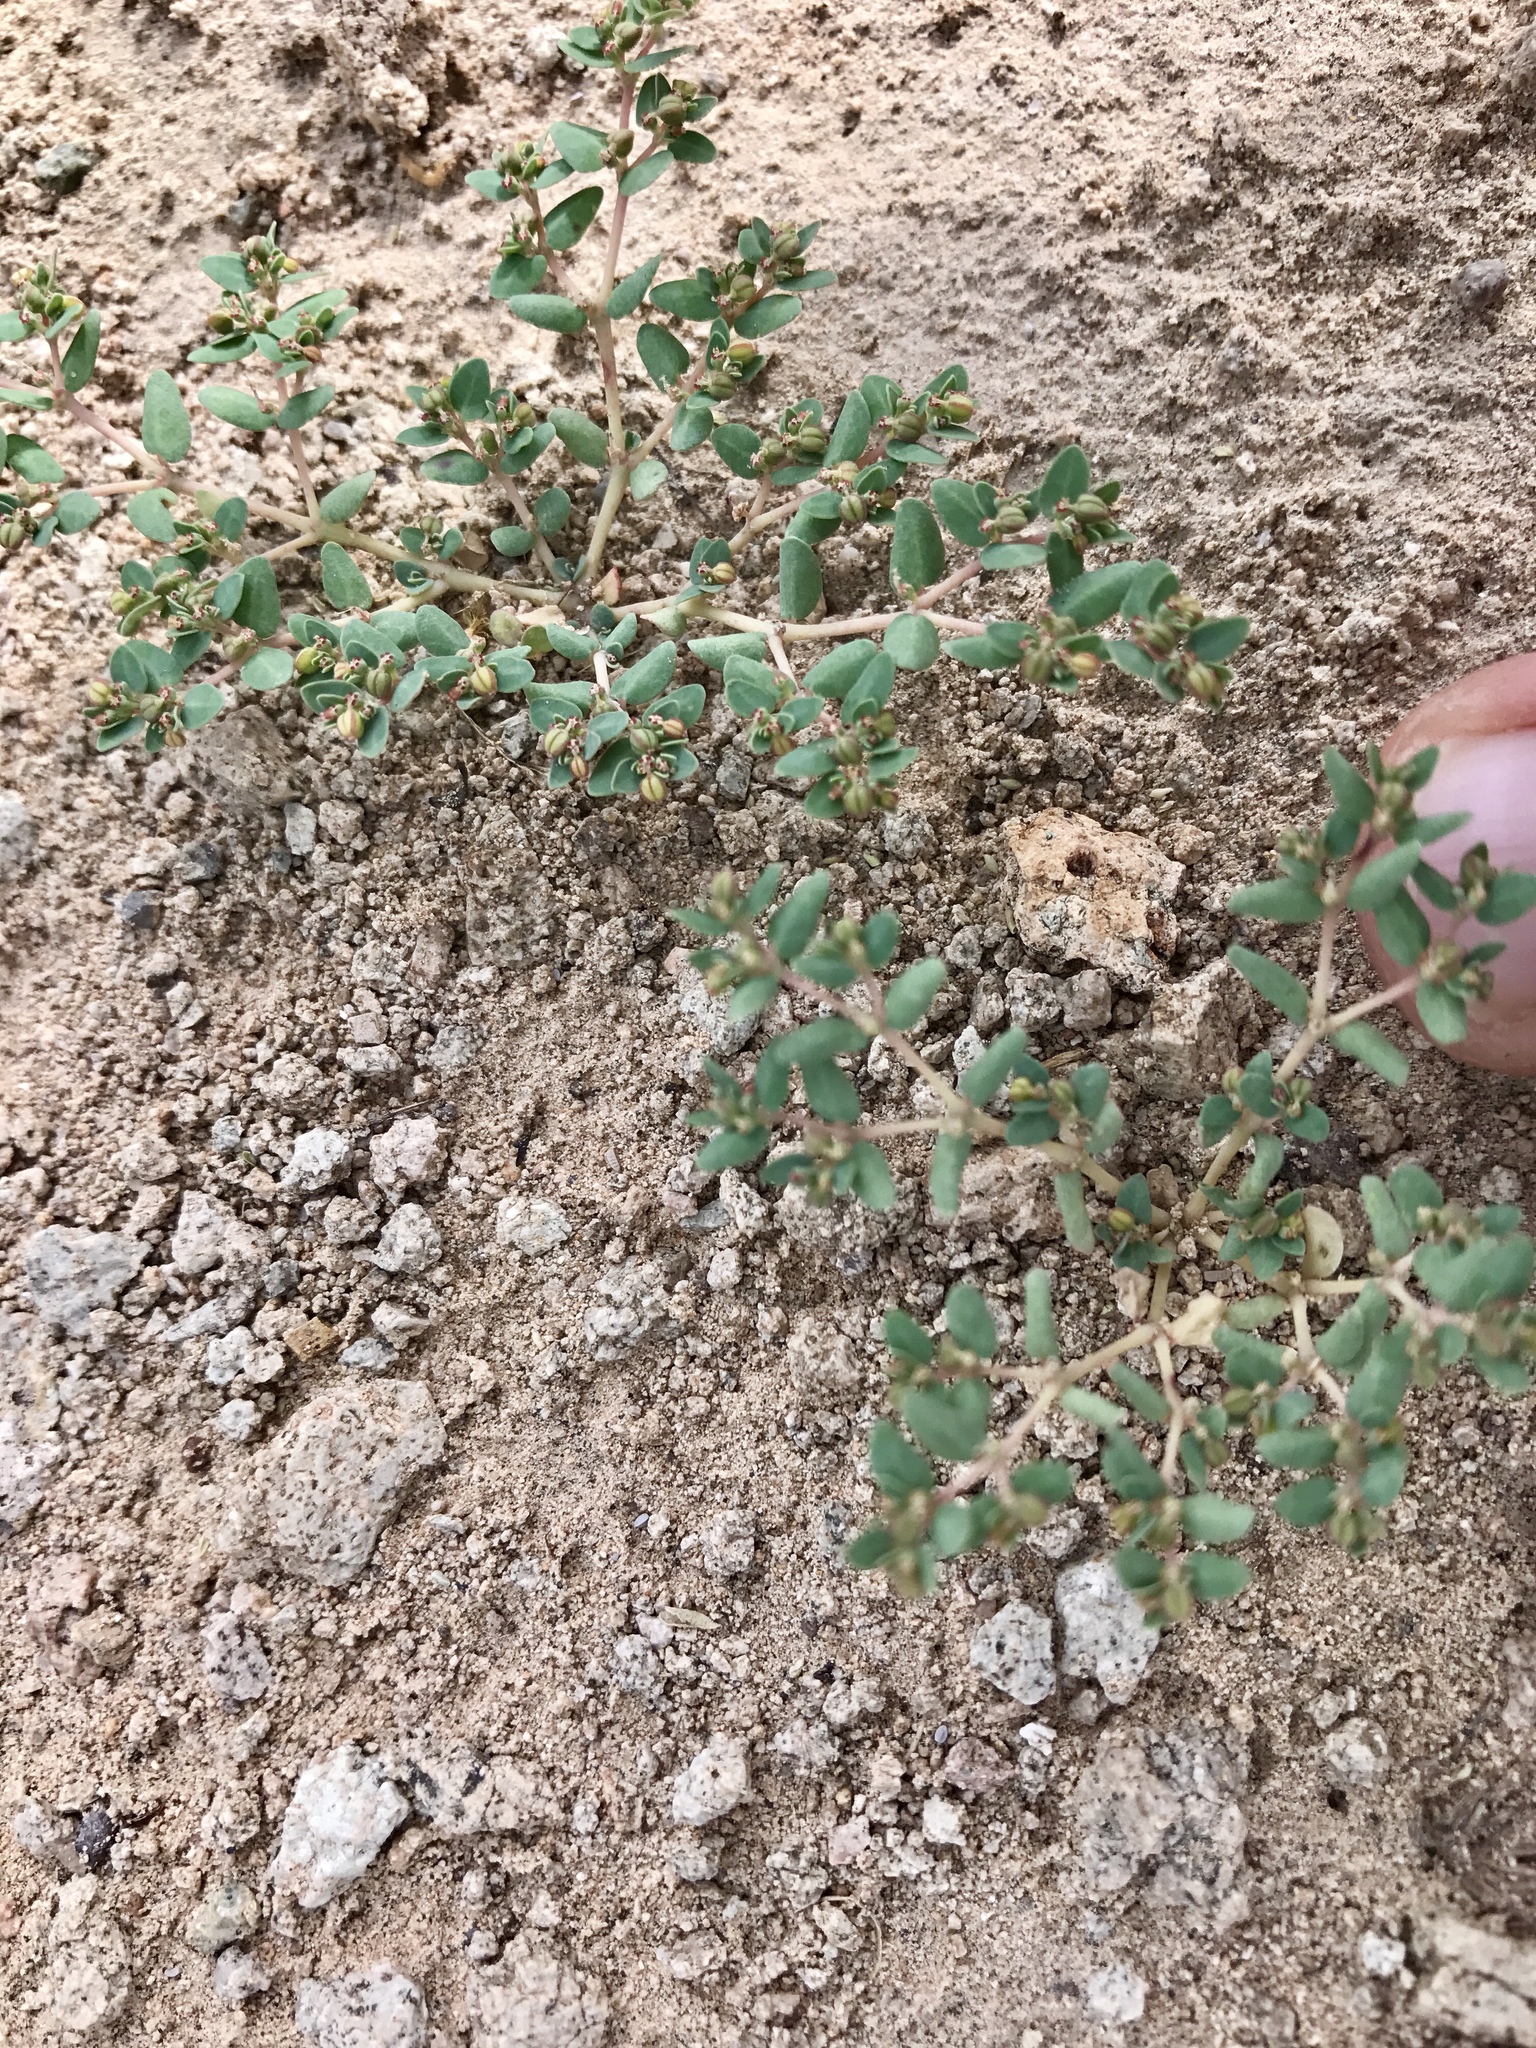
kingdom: Plantae
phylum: Tracheophyta
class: Magnoliopsida
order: Malpighiales
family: Euphorbiaceae
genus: Euphorbia
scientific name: Euphorbia micromera
